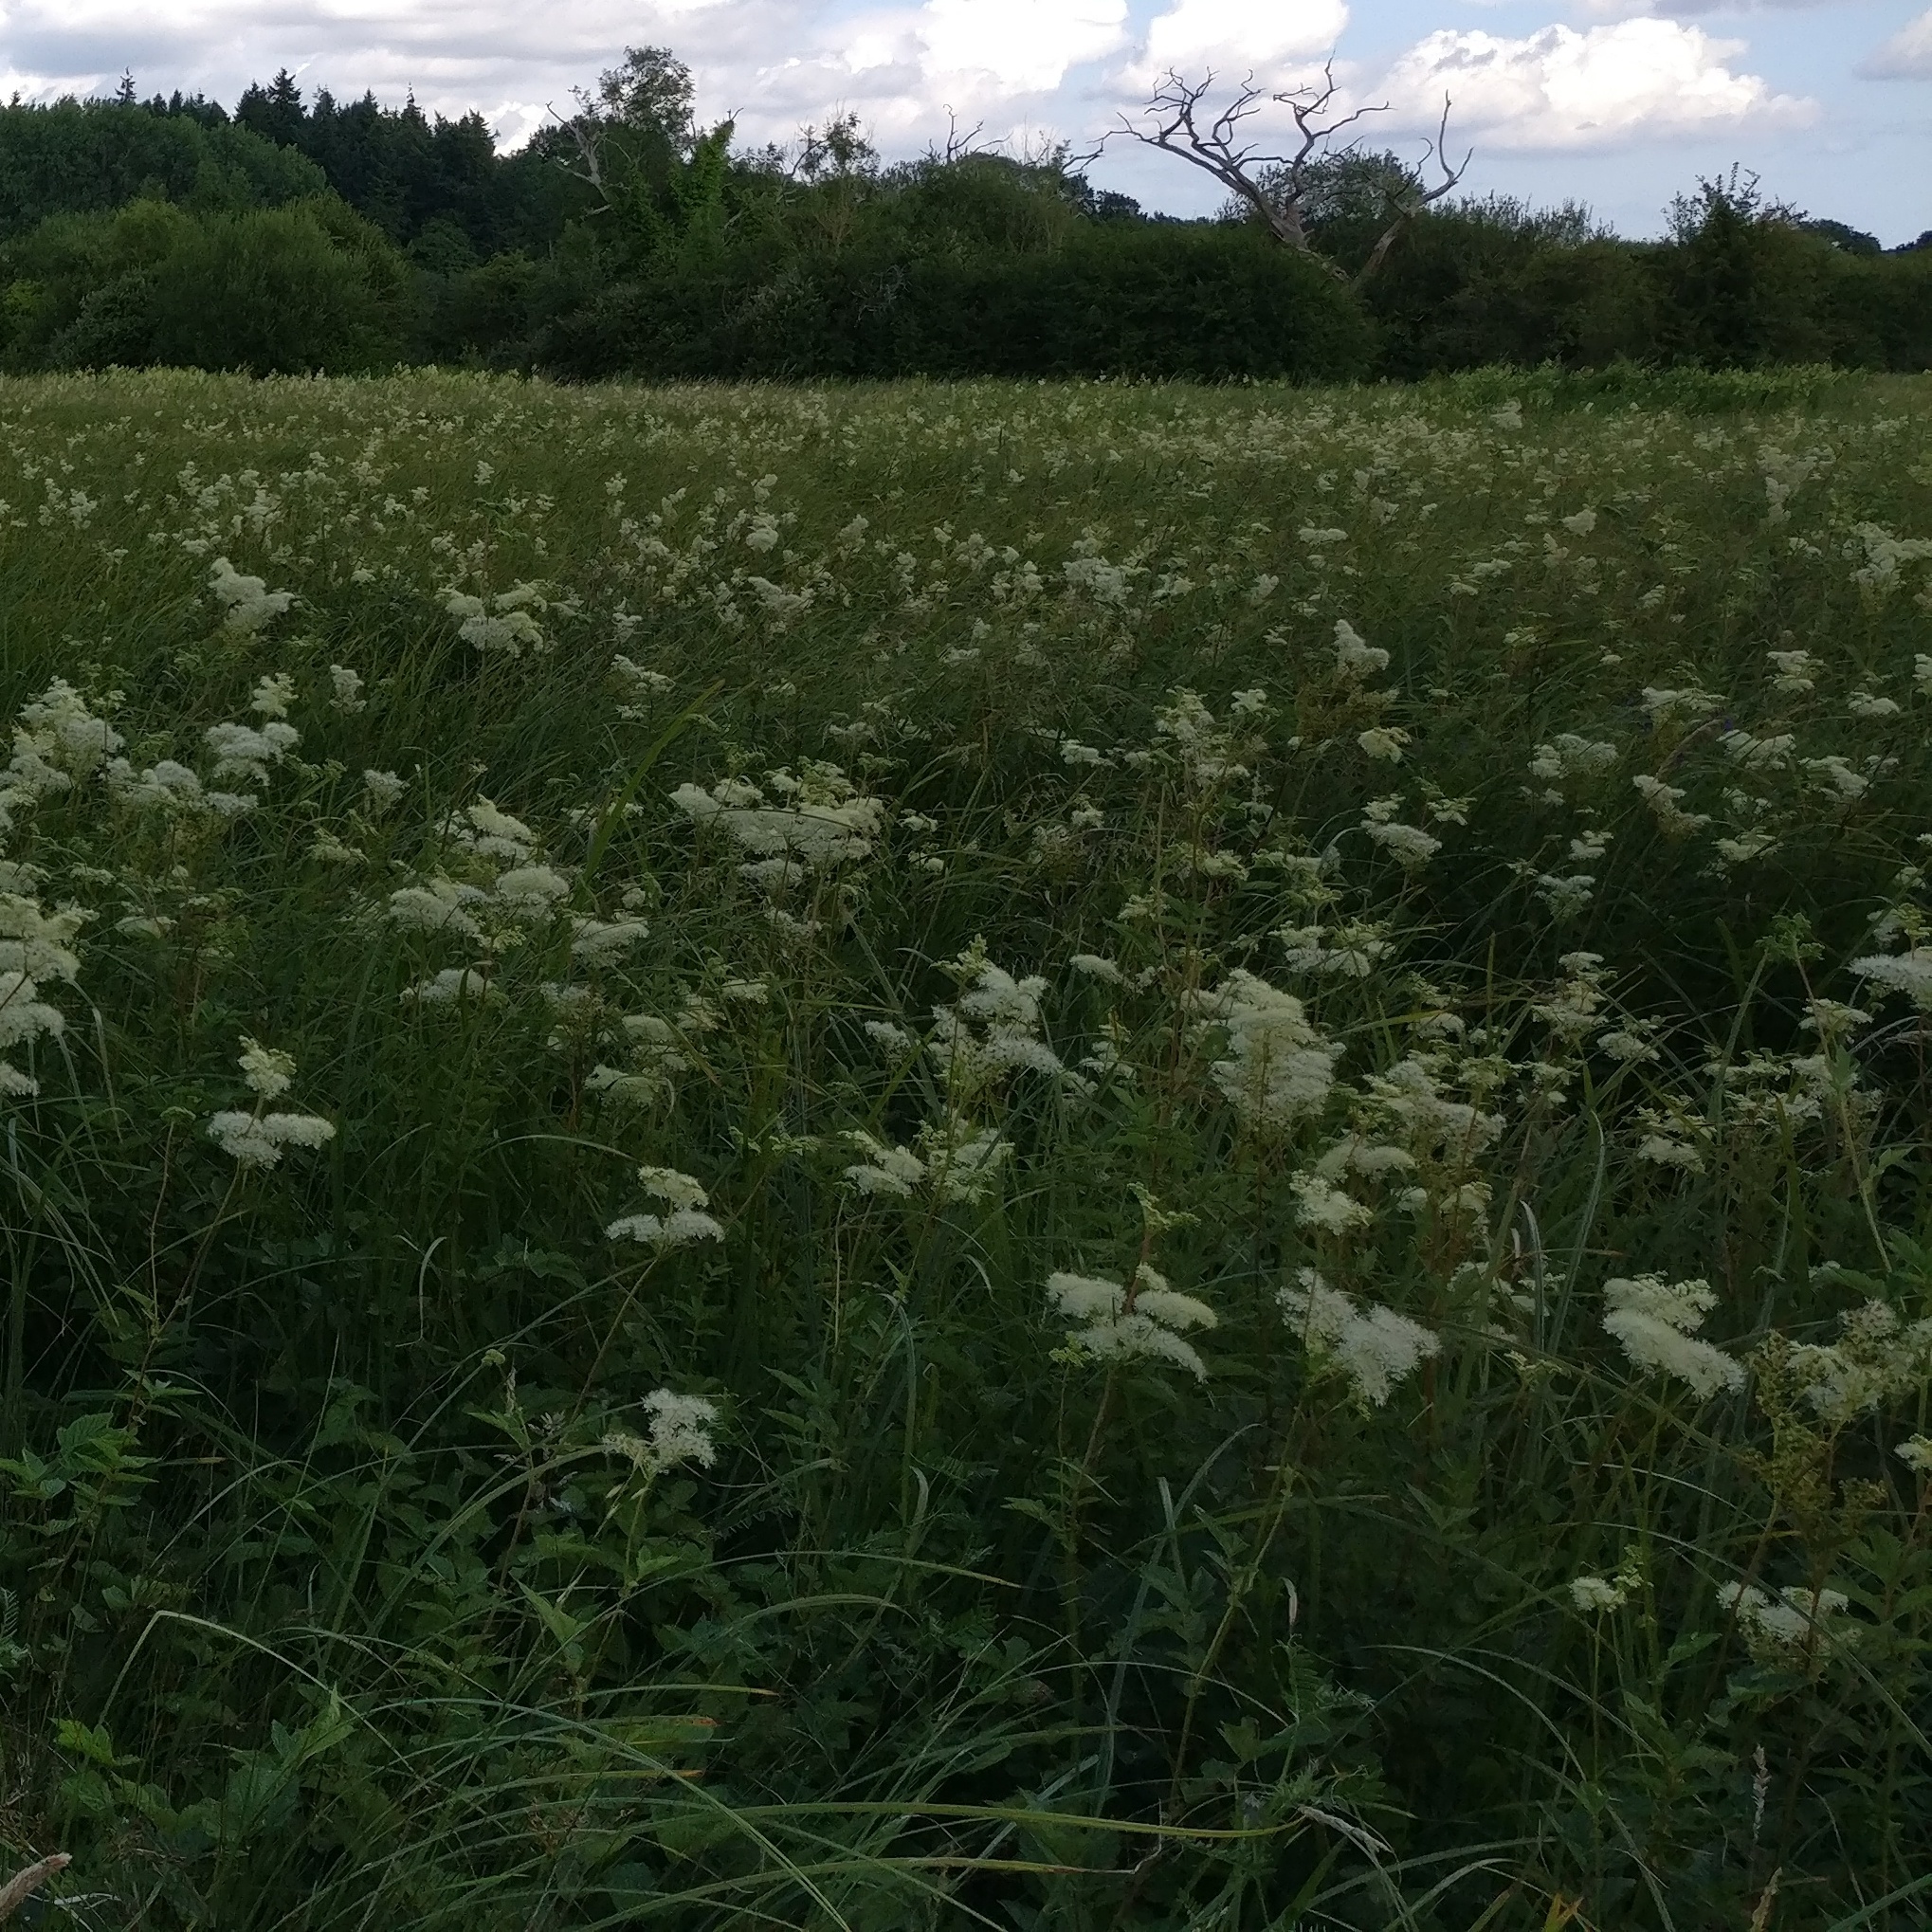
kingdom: Plantae
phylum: Tracheophyta
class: Magnoliopsida
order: Rosales
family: Rosaceae
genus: Filipendula
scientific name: Filipendula ulmaria
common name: Meadowsweet
